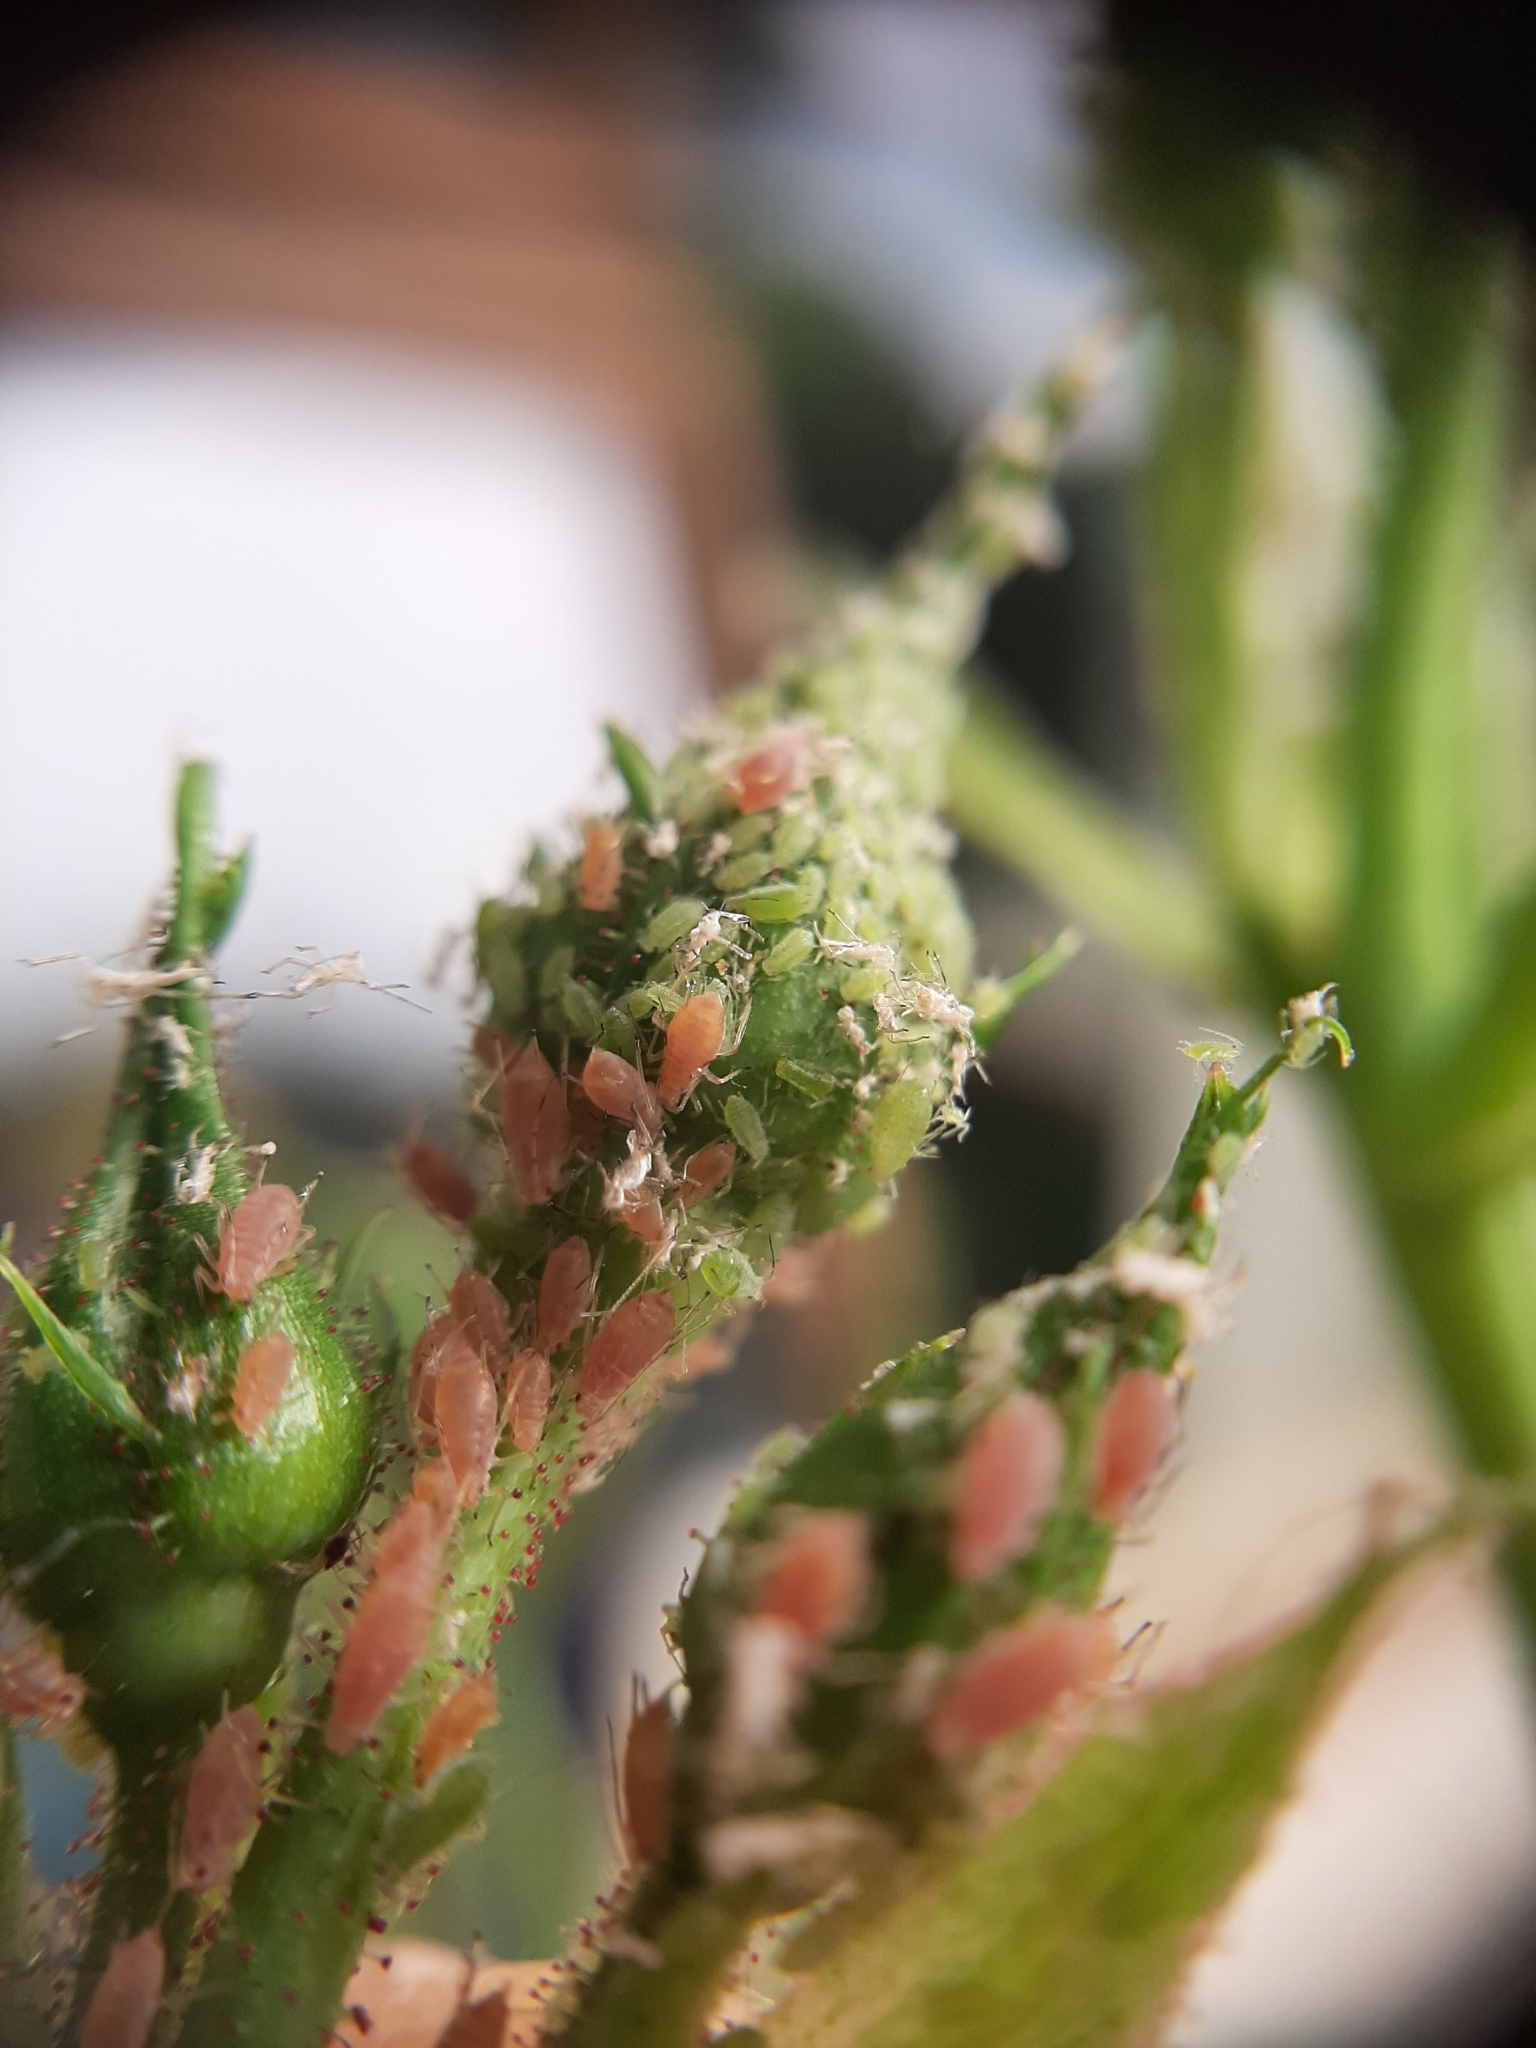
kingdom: Animalia
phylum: Arthropoda
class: Insecta
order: Hemiptera
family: Aphididae
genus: Macrosiphum
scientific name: Macrosiphum rosae
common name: Rose aphid
